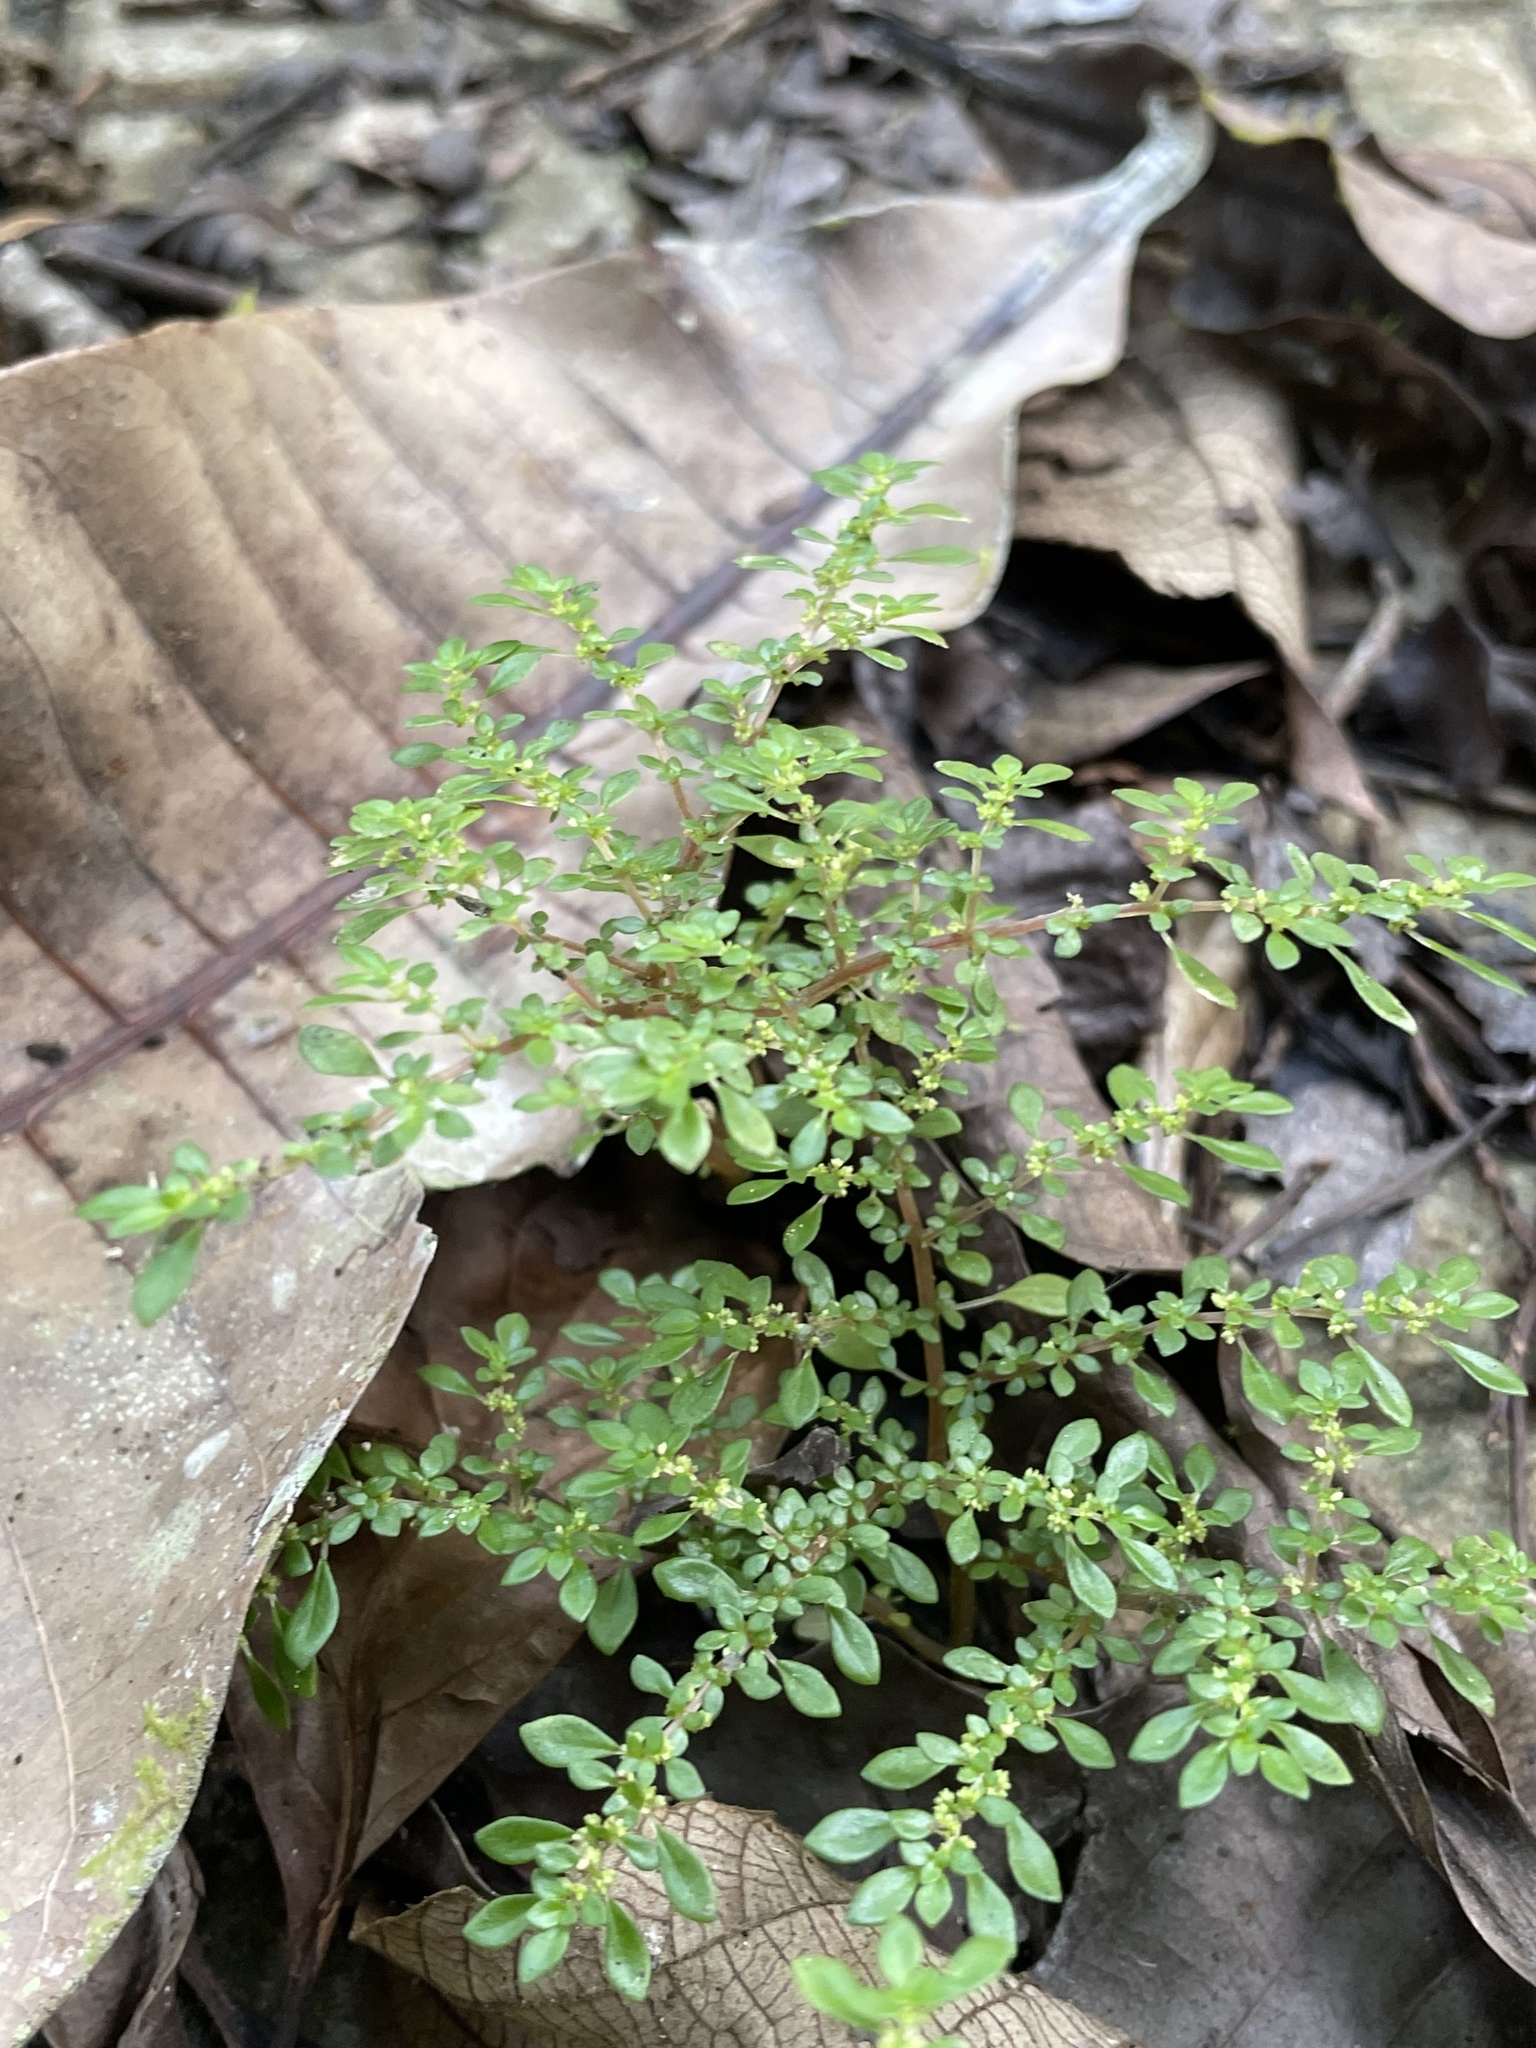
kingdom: Plantae
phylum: Tracheophyta
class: Magnoliopsida
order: Rosales
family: Urticaceae
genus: Pilea
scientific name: Pilea microphylla
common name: Artillery-plant
